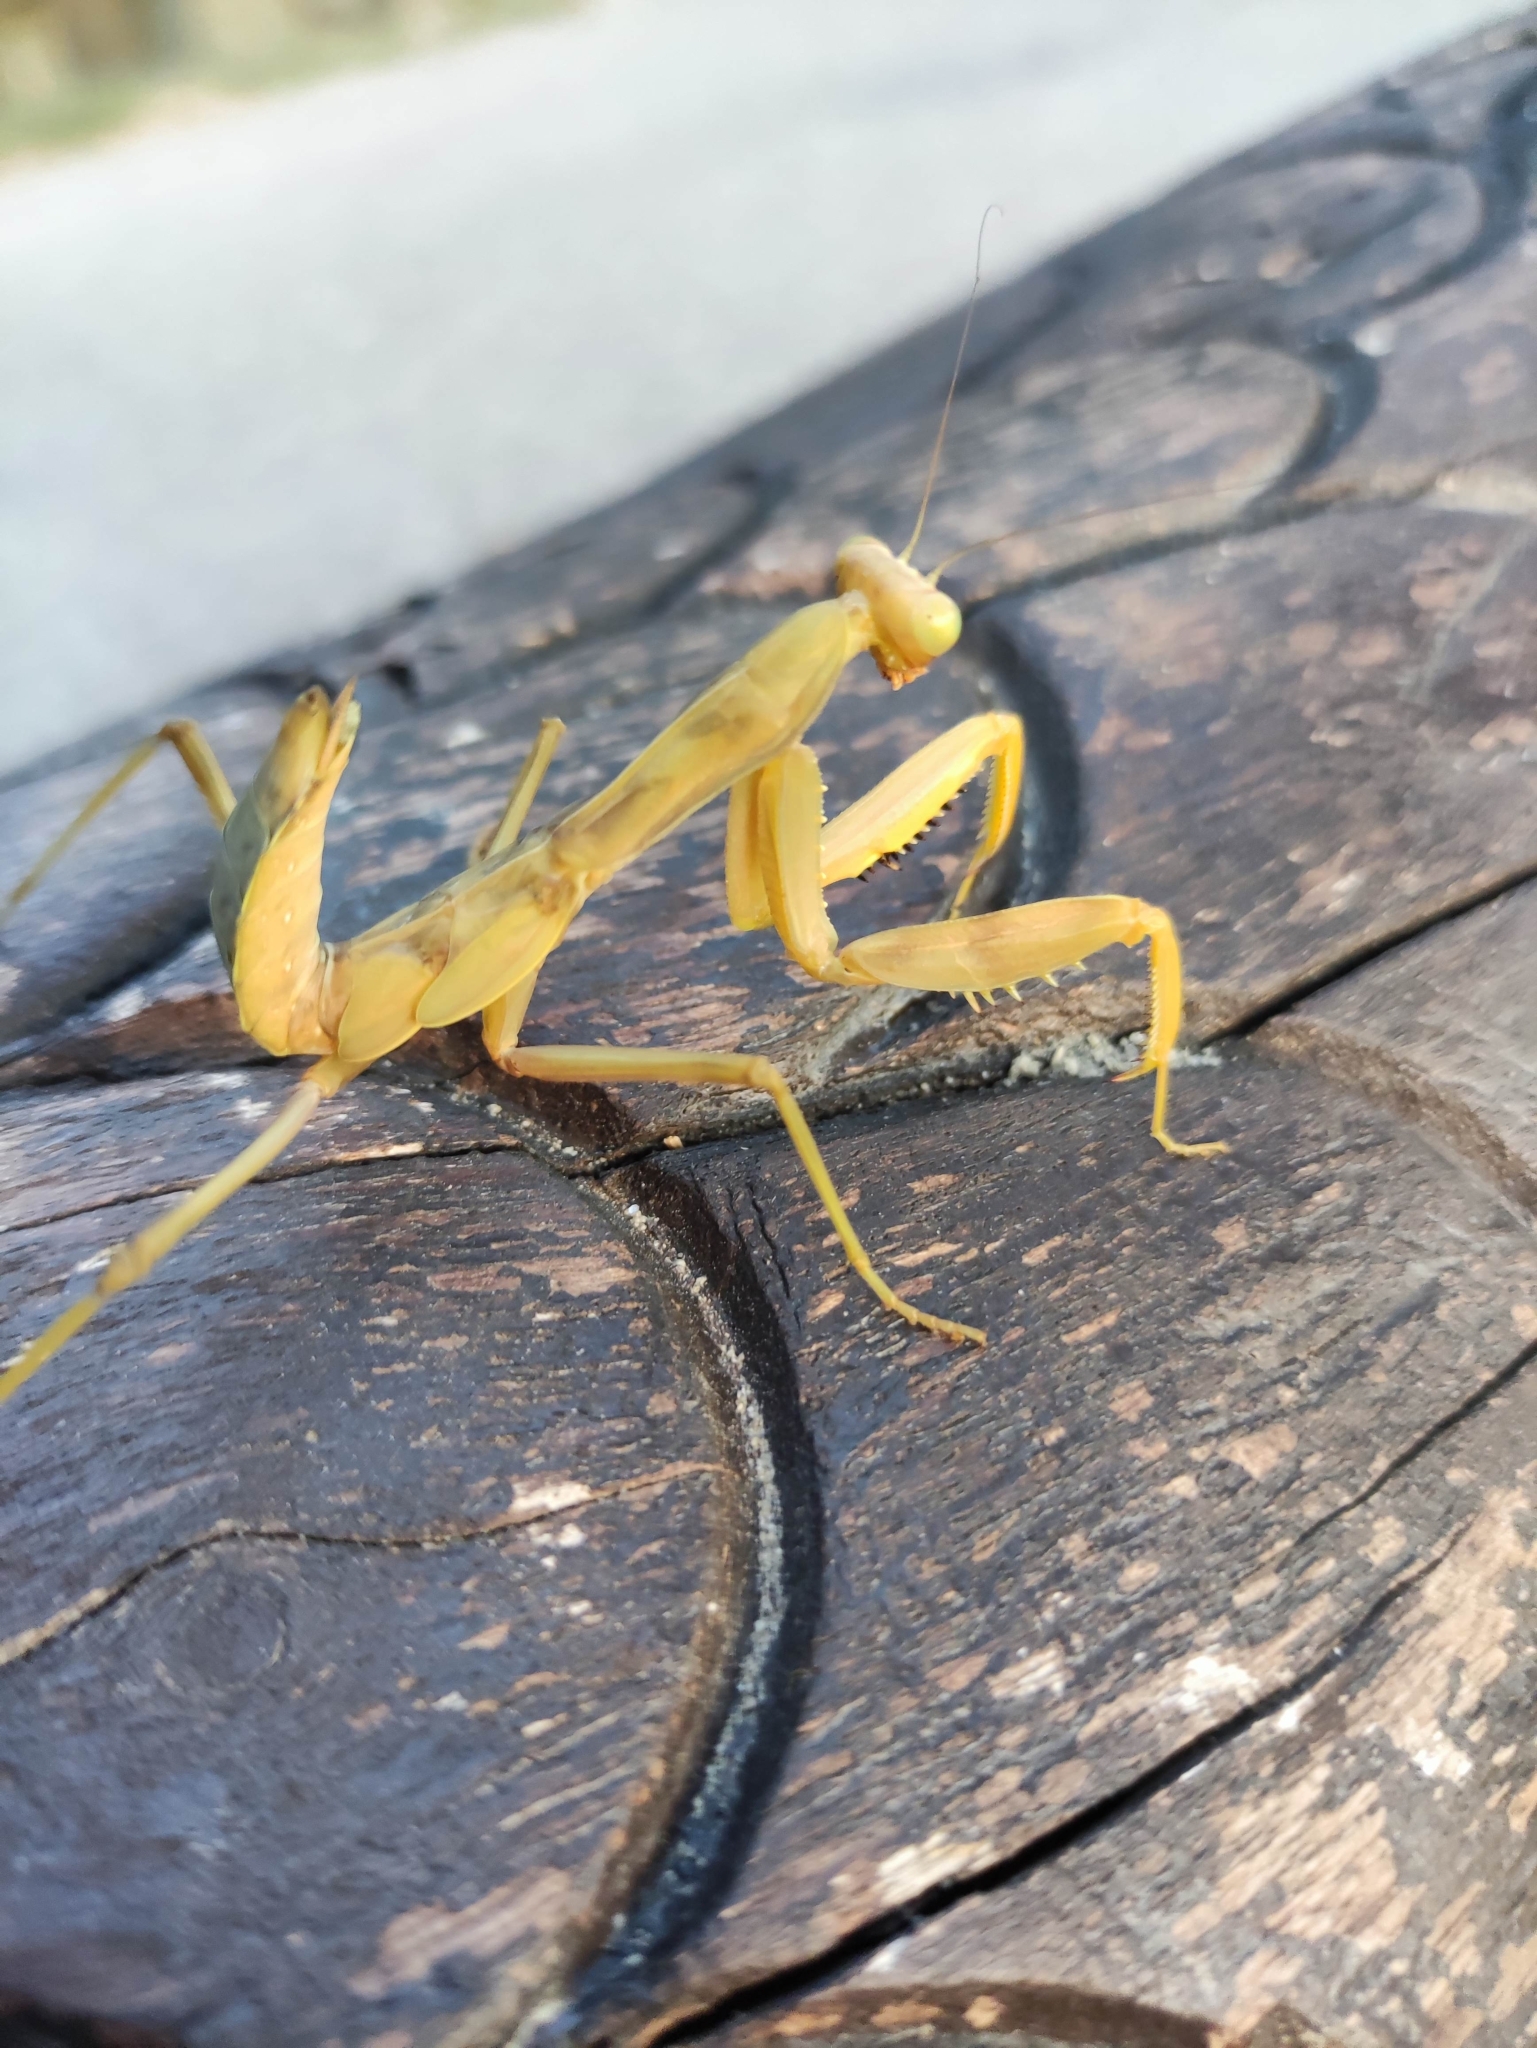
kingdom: Animalia
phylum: Arthropoda
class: Insecta
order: Mantodea
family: Mantidae
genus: Hierodula
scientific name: Hierodula transcaucasica
